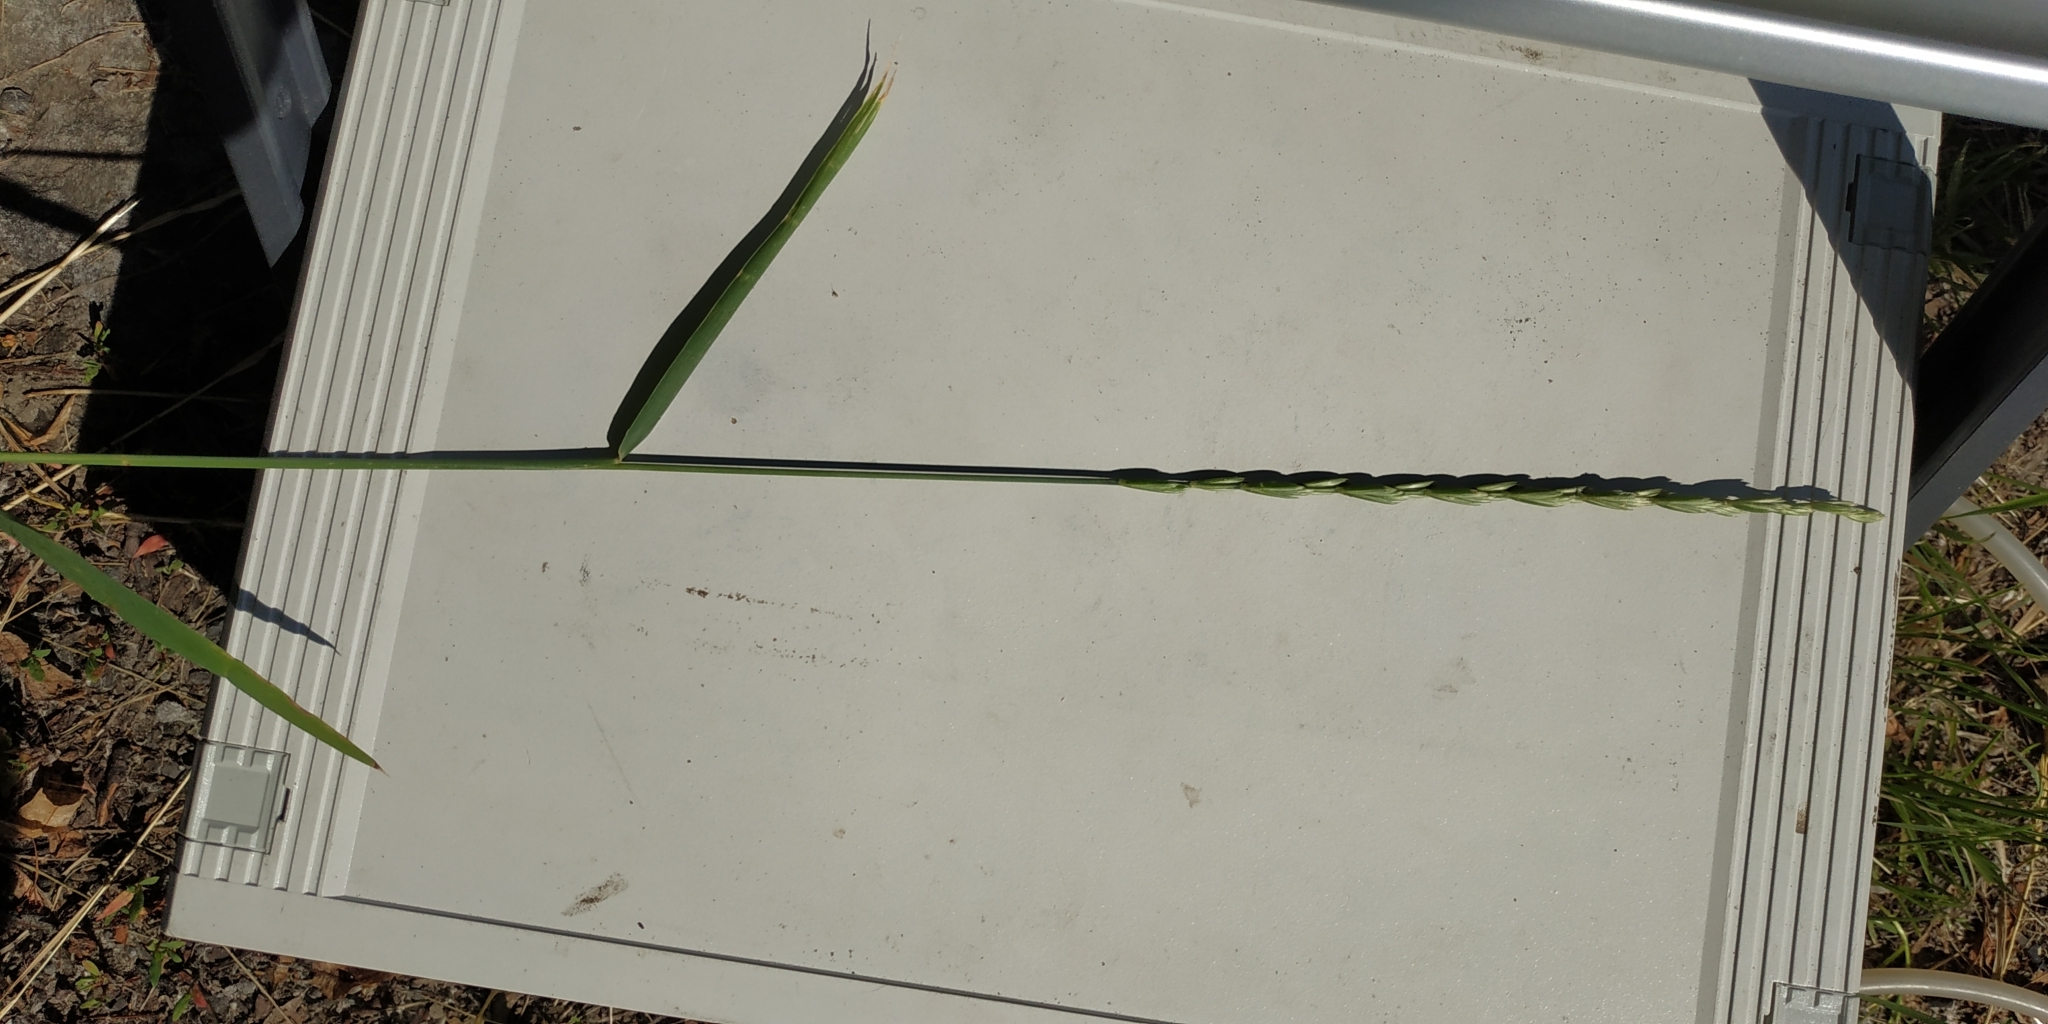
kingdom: Plantae
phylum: Tracheophyta
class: Liliopsida
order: Poales
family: Poaceae
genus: Elymus
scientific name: Elymus repens
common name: Quackgrass
